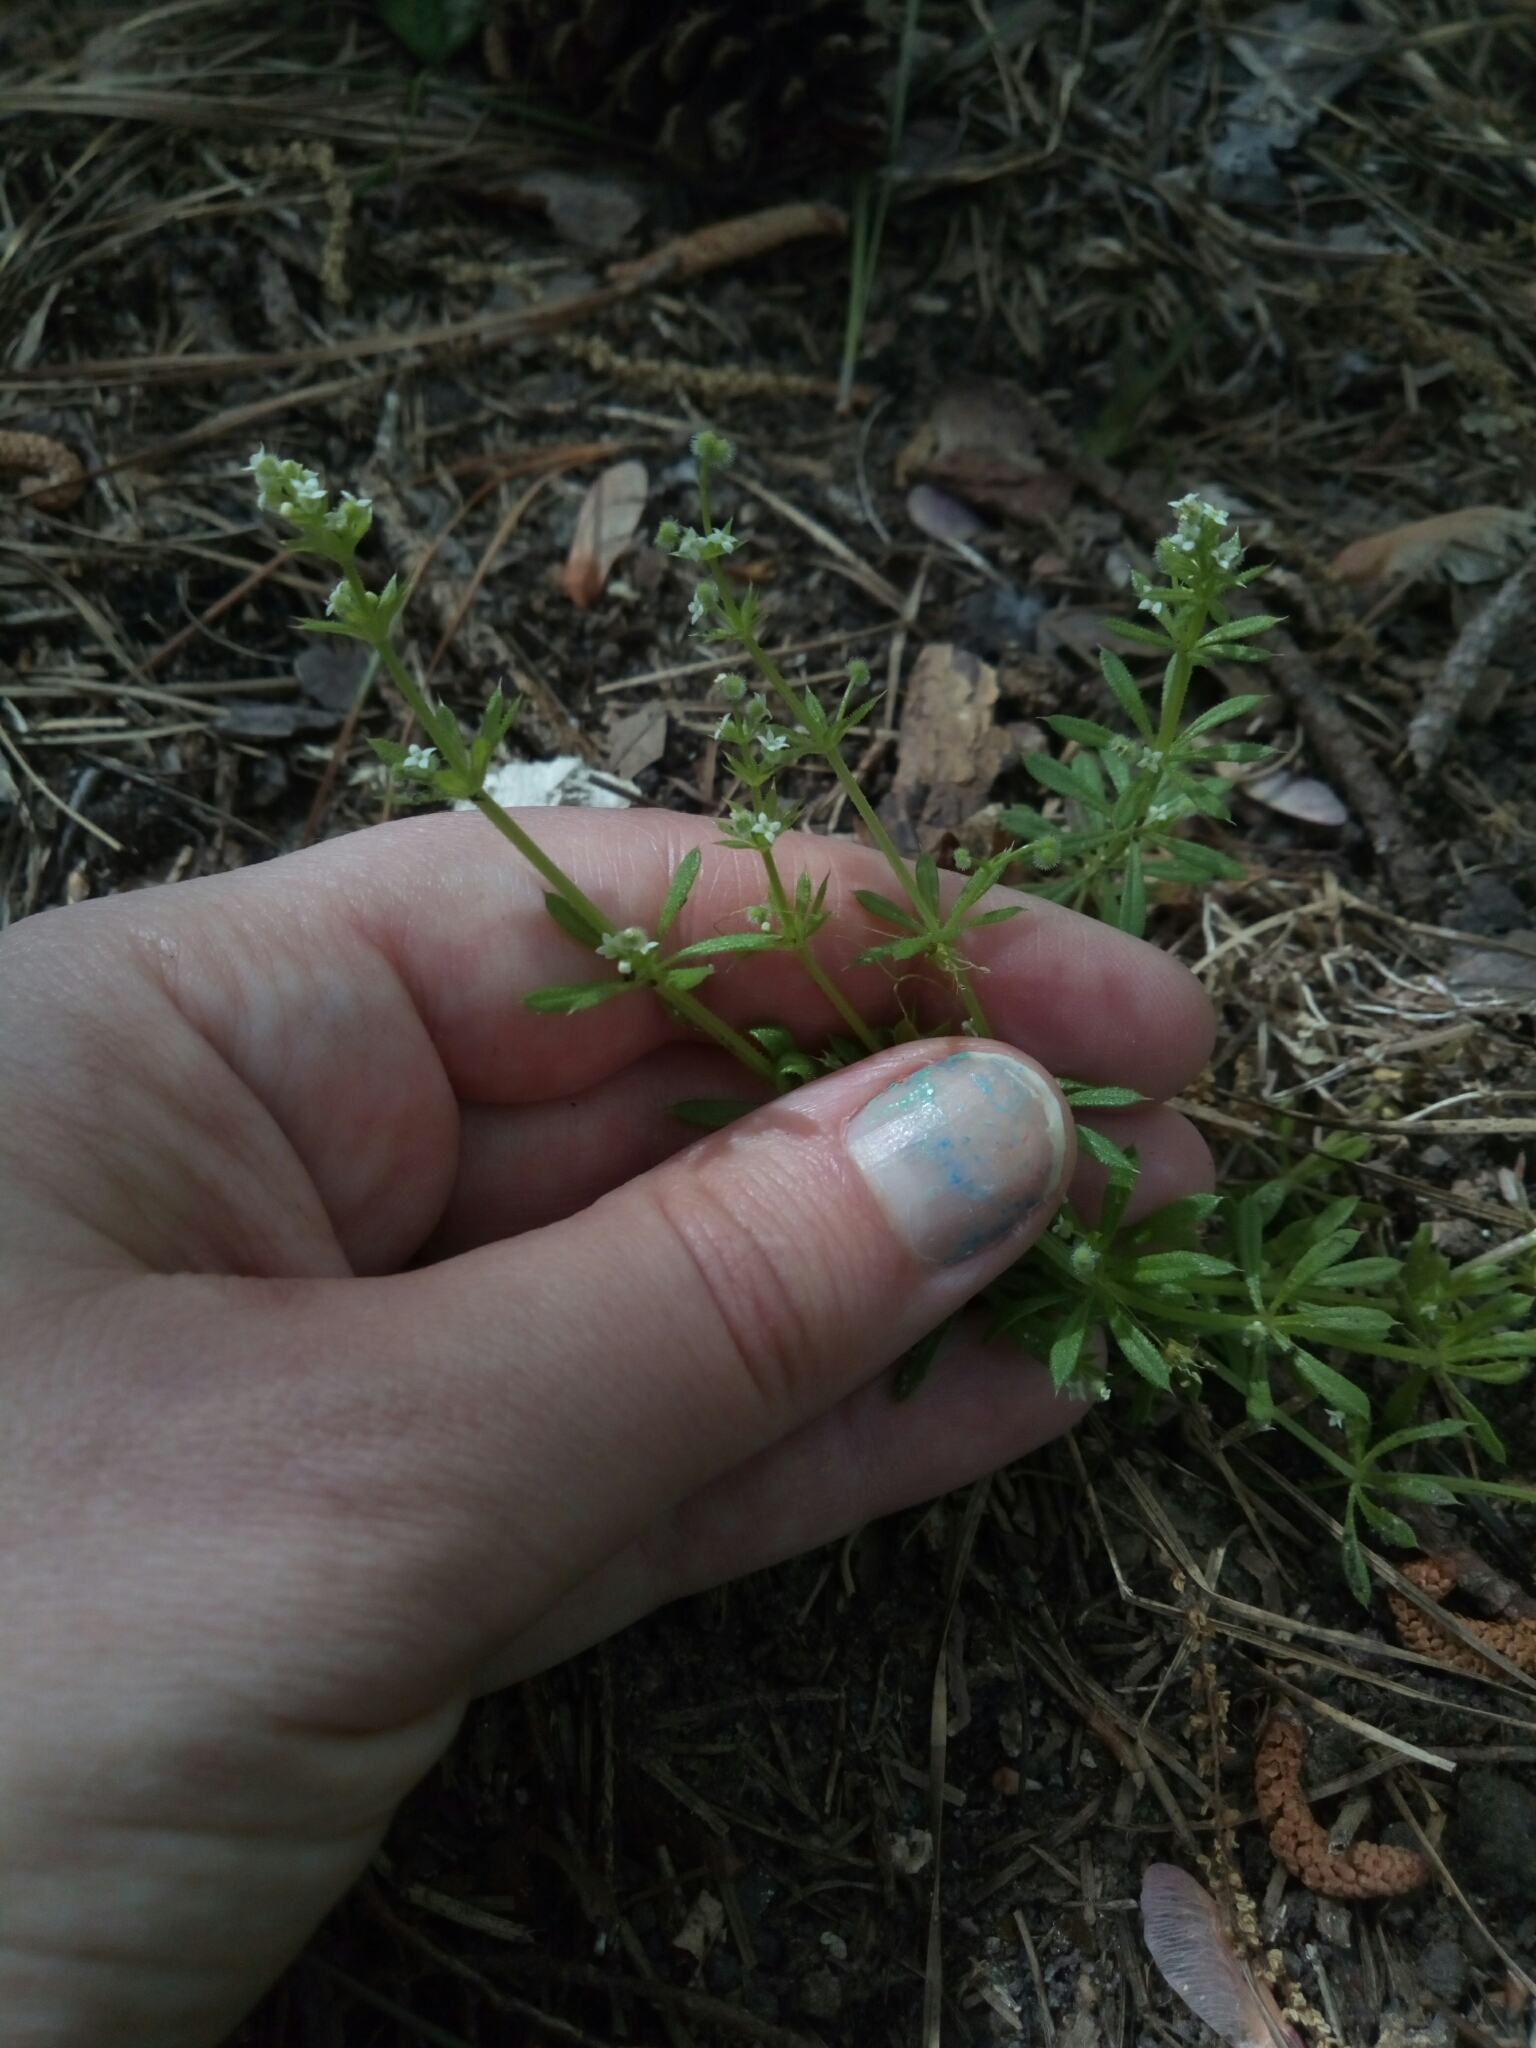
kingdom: Plantae
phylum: Tracheophyta
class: Magnoliopsida
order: Gentianales
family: Rubiaceae
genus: Galium
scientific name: Galium aparine
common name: Cleavers
